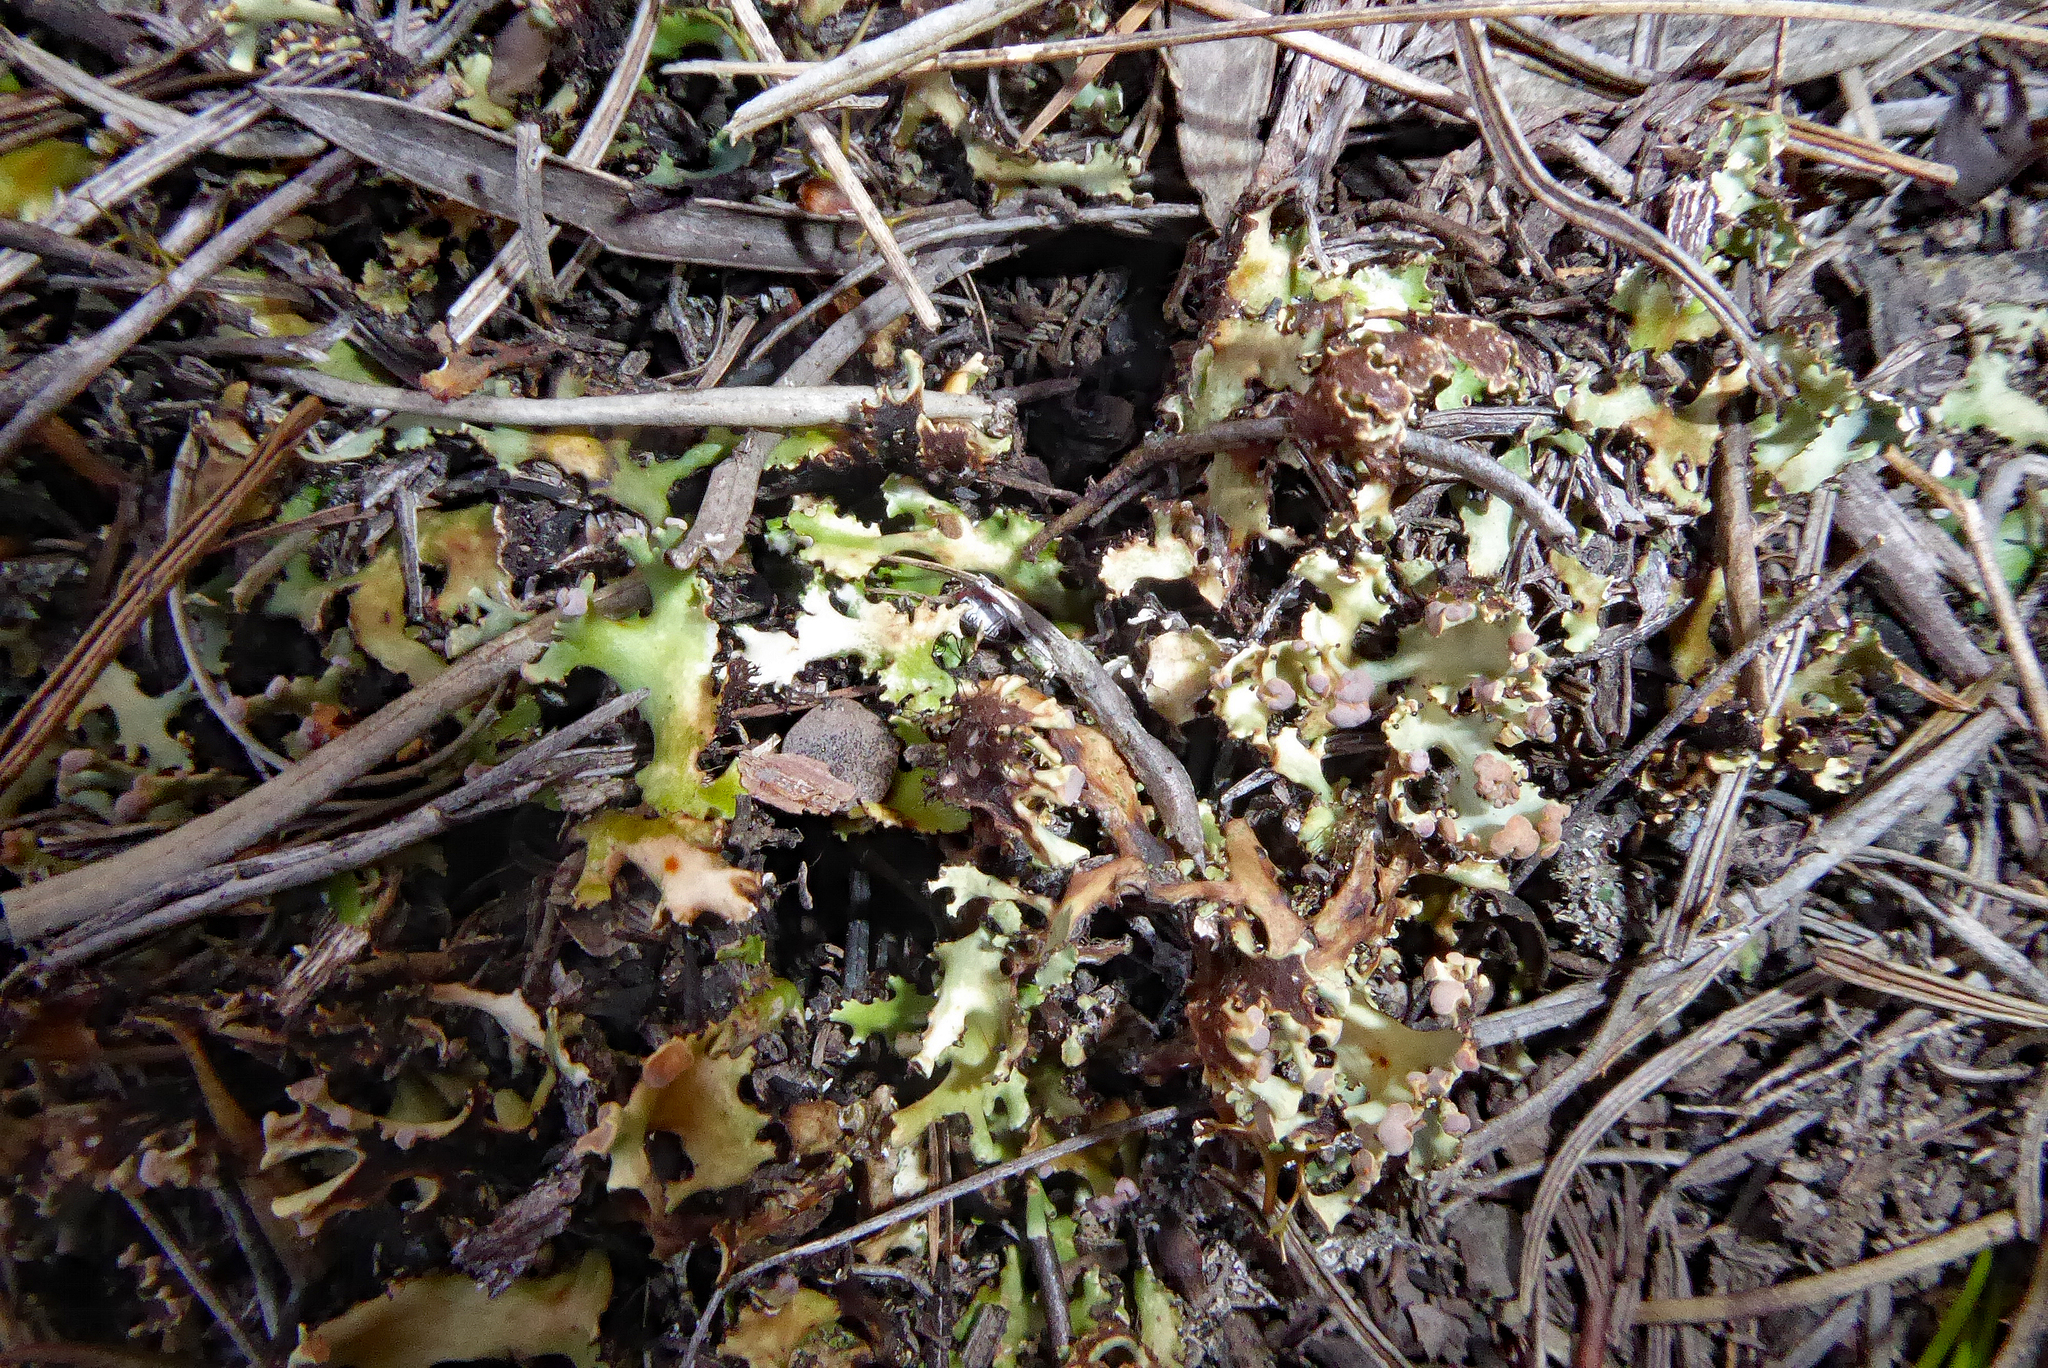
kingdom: Fungi
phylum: Ascomycota
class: Lecanoromycetes
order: Lecanorales
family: Cladoniaceae
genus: Cladia
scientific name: Cladia muelleri
